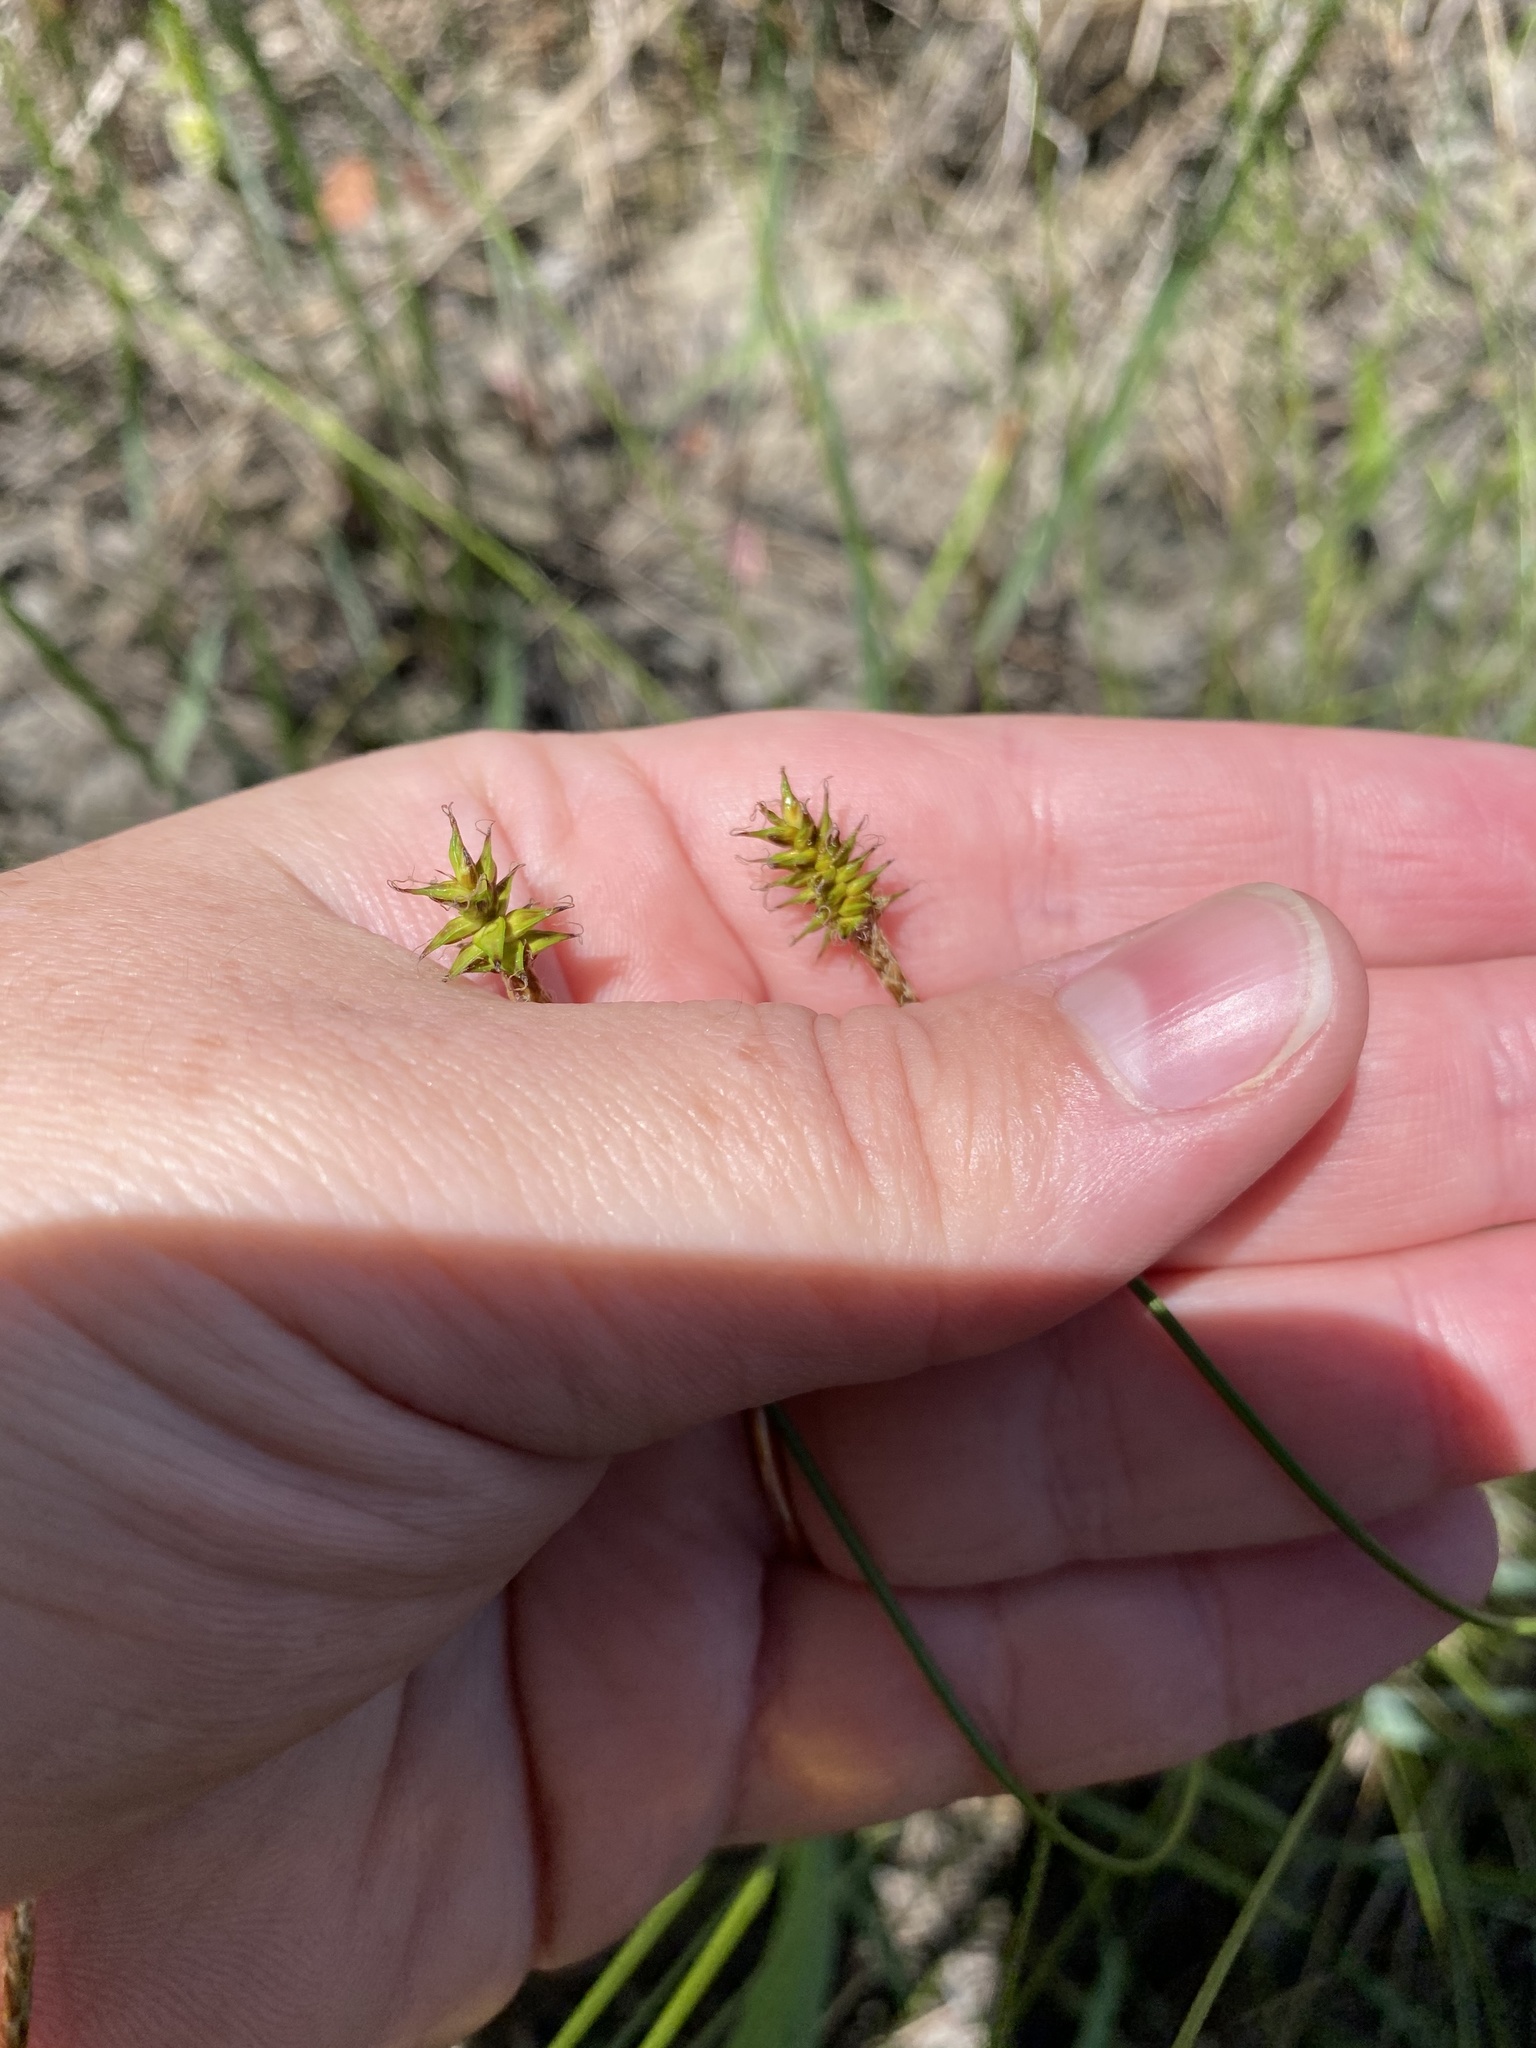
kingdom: Plantae
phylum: Tracheophyta
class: Liliopsida
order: Poales
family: Cyperaceae
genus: Carex
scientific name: Carex exilis
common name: Coastal sedge
